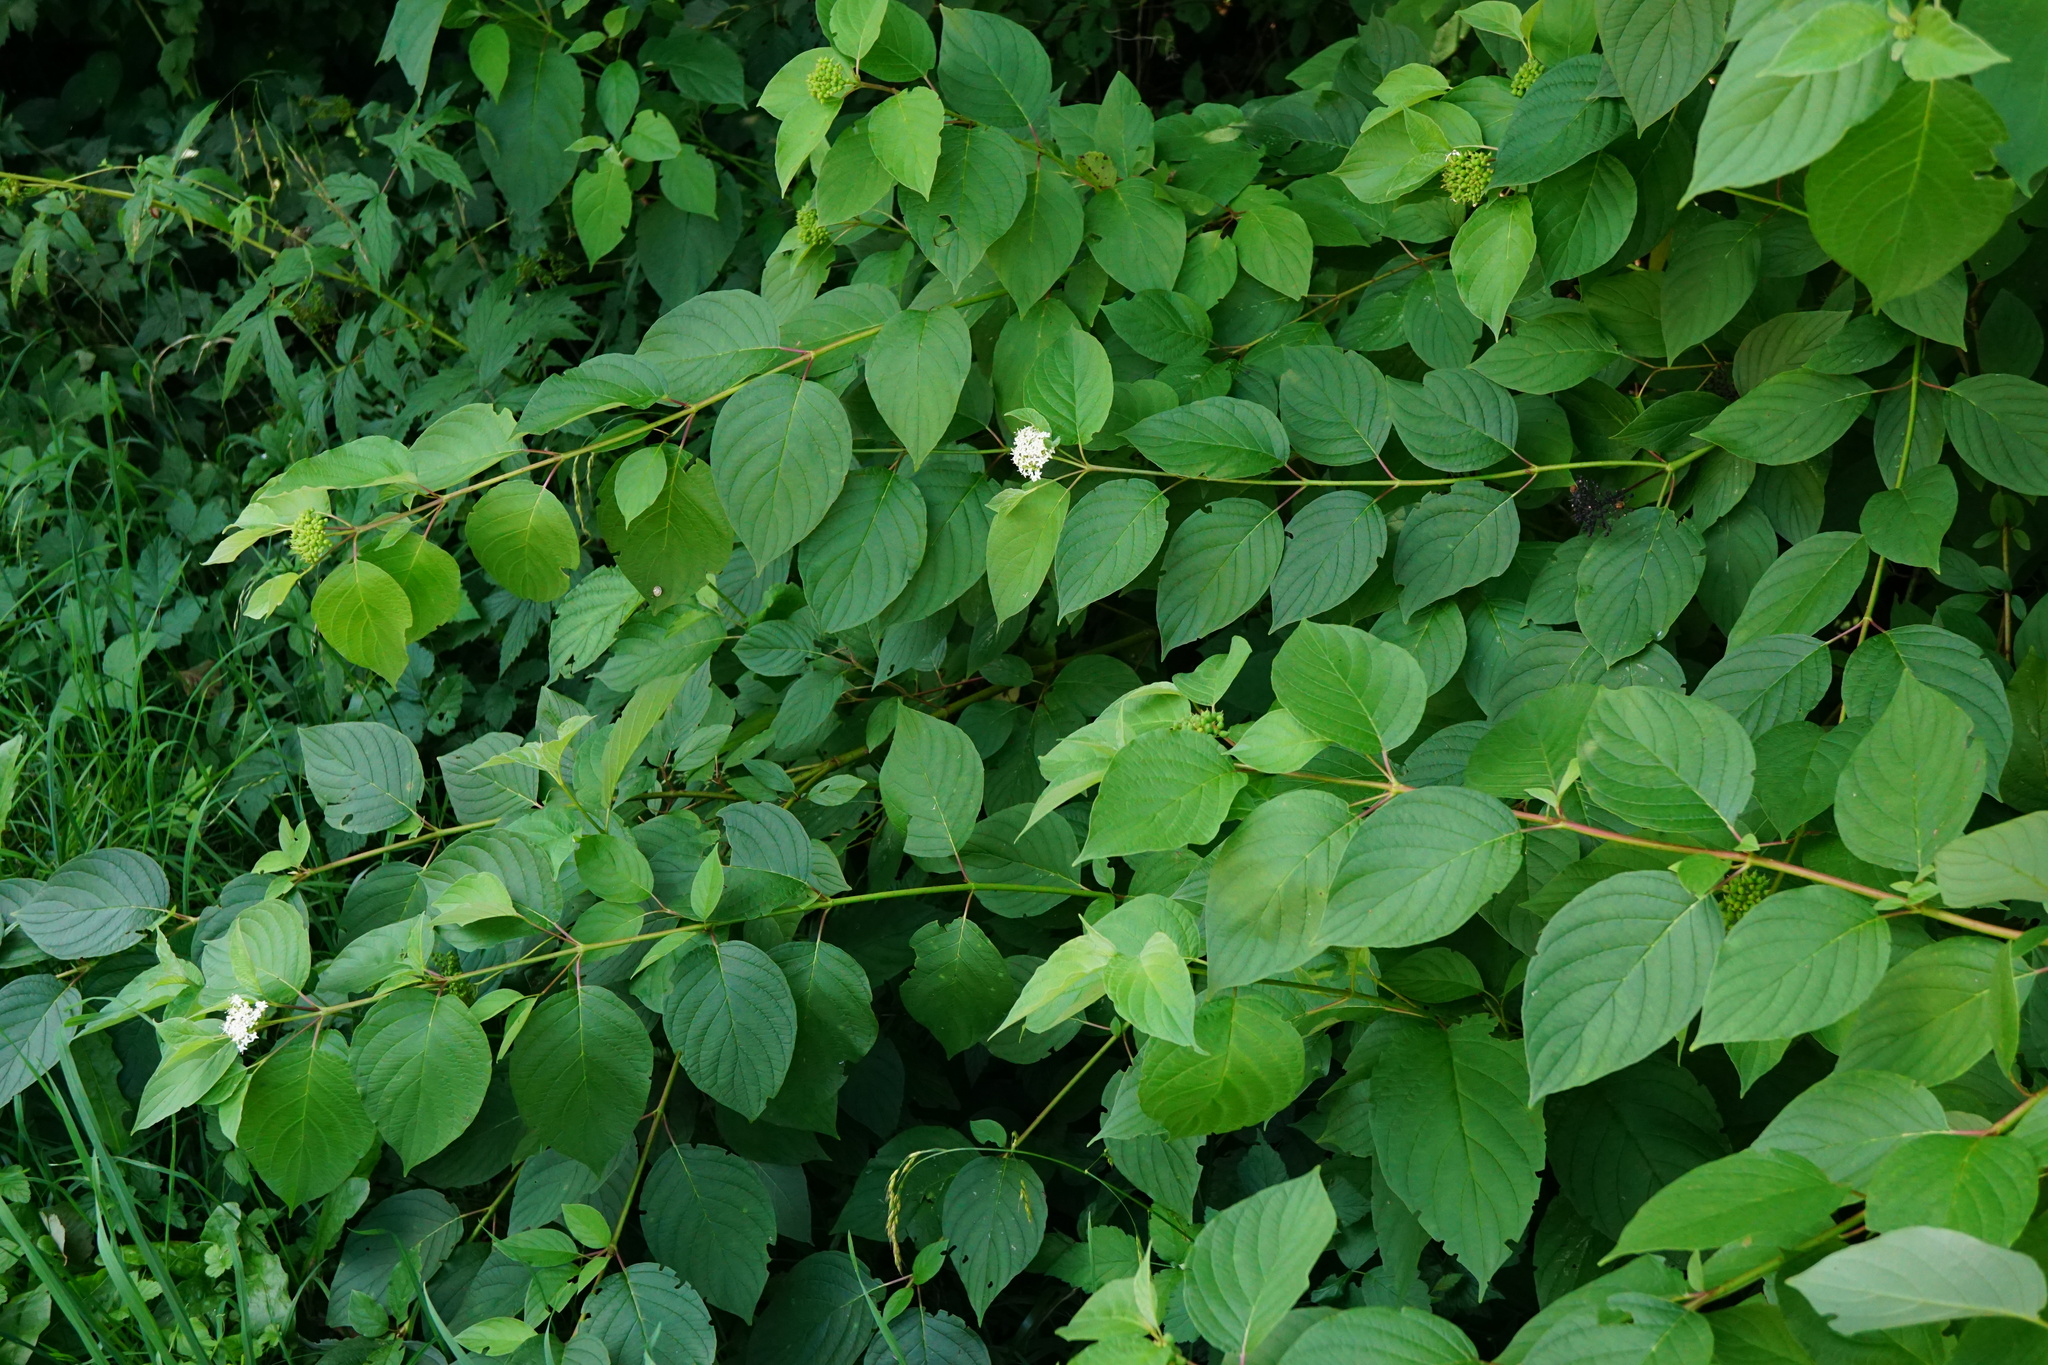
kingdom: Plantae
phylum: Tracheophyta
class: Magnoliopsida
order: Cornales
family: Cornaceae
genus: Cornus
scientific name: Cornus sericea
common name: Red-osier dogwood
